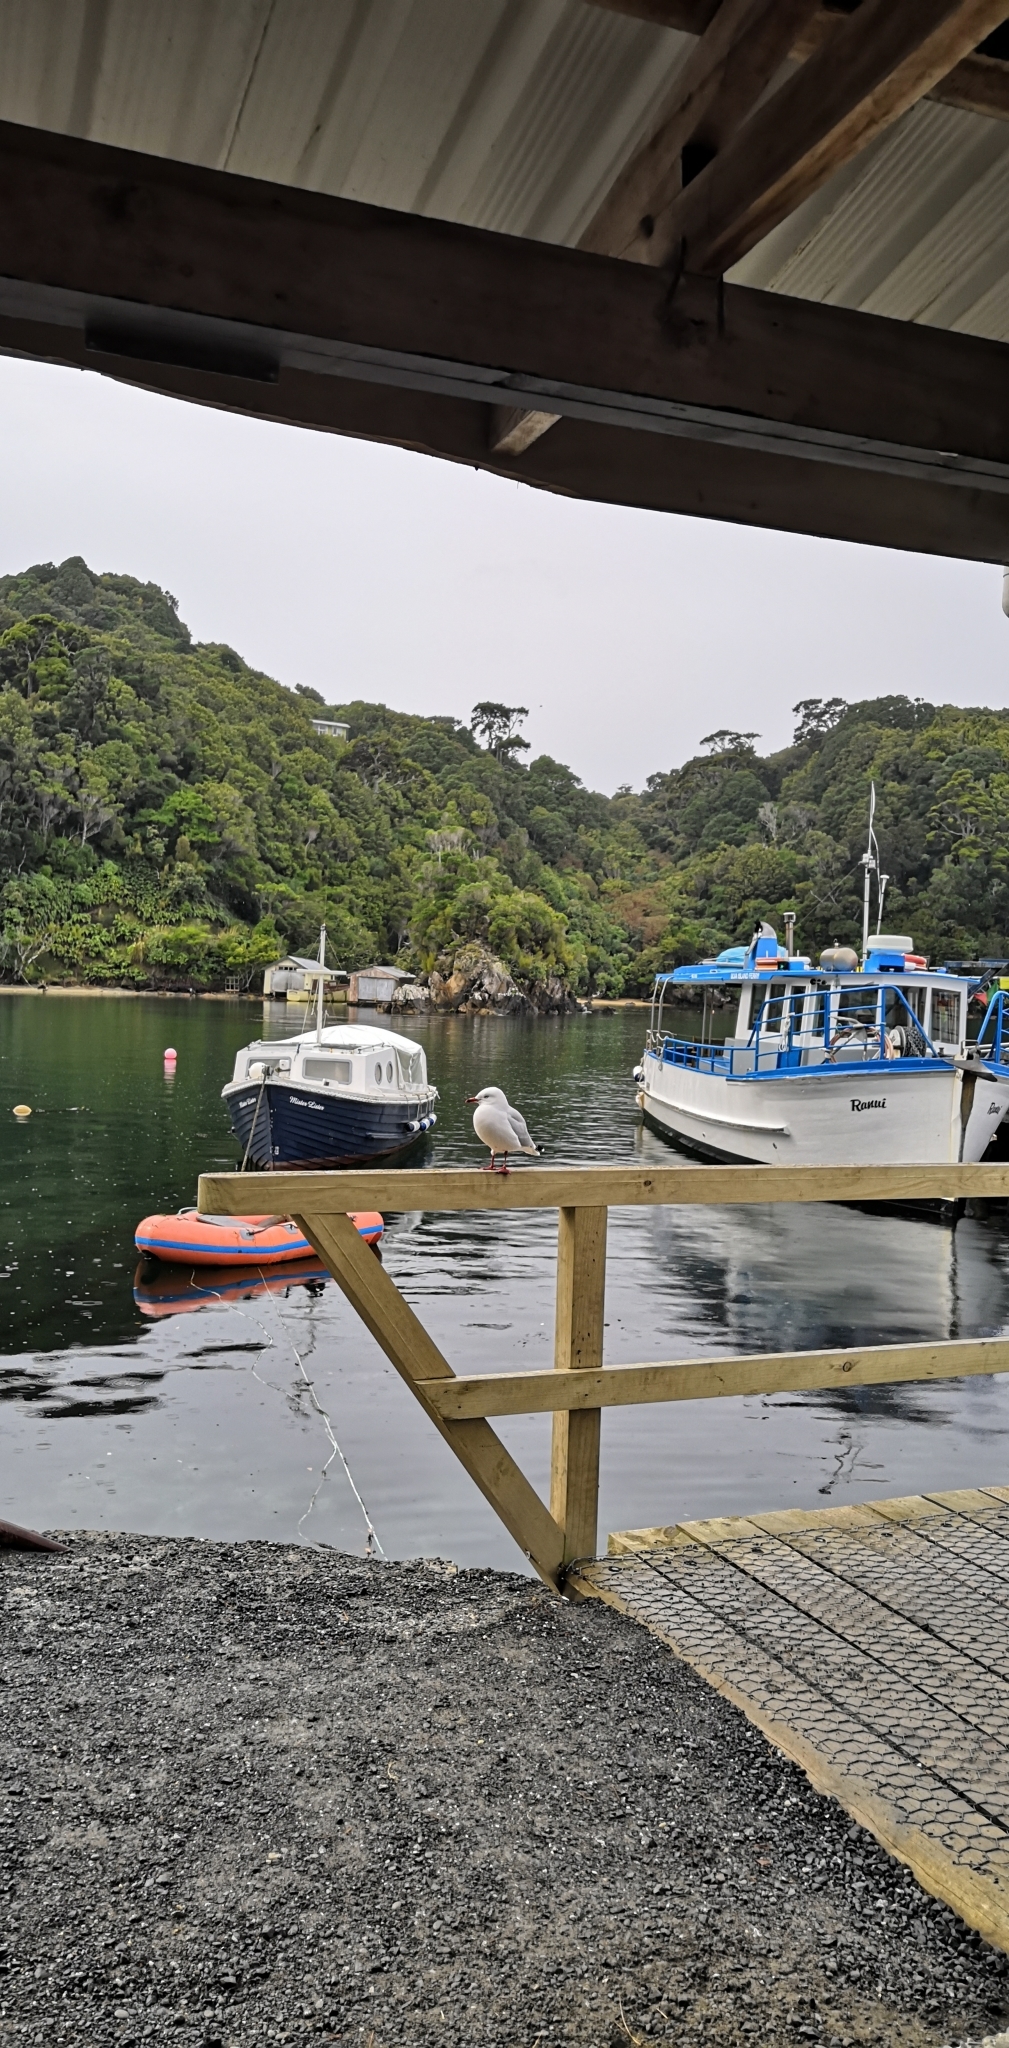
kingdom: Animalia
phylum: Chordata
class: Aves
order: Charadriiformes
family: Laridae
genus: Chroicocephalus
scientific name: Chroicocephalus novaehollandiae
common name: Silver gull
